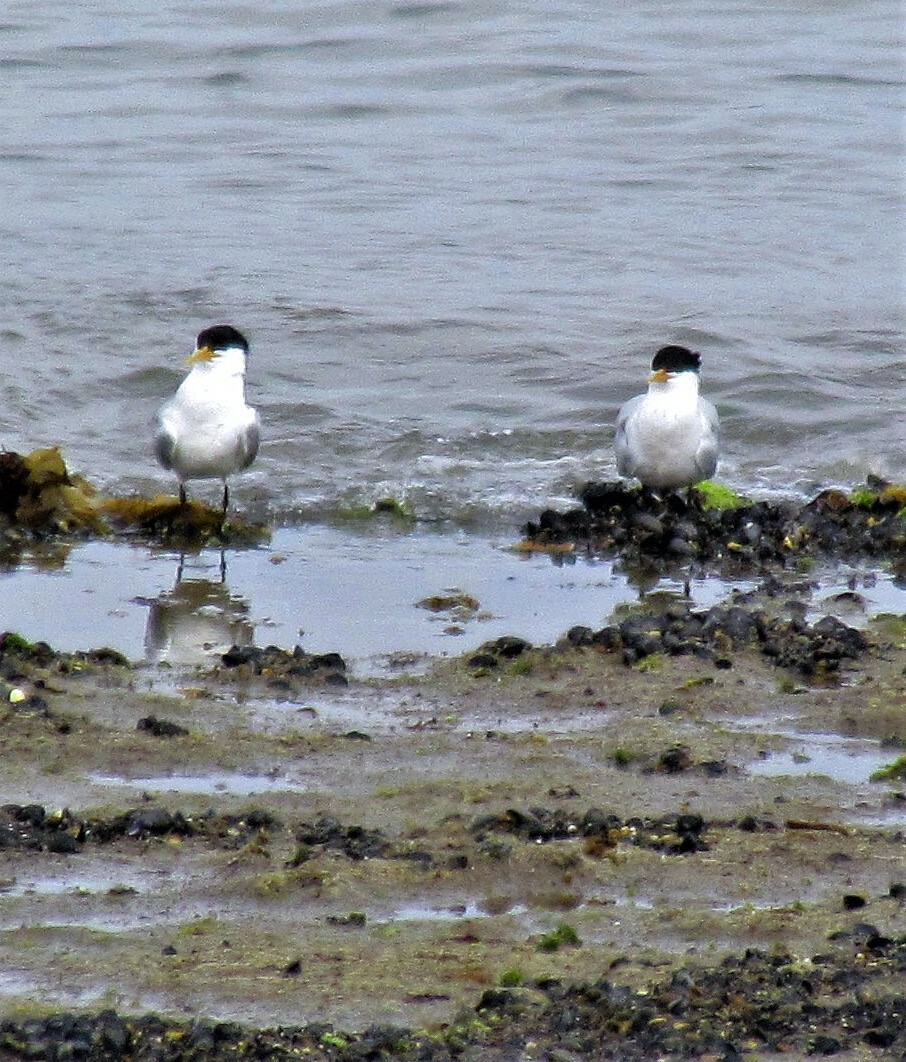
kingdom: Animalia
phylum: Chordata
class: Aves
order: Charadriiformes
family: Laridae
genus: Thalasseus
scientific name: Thalasseus acuflavidus
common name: Cabot's tern
